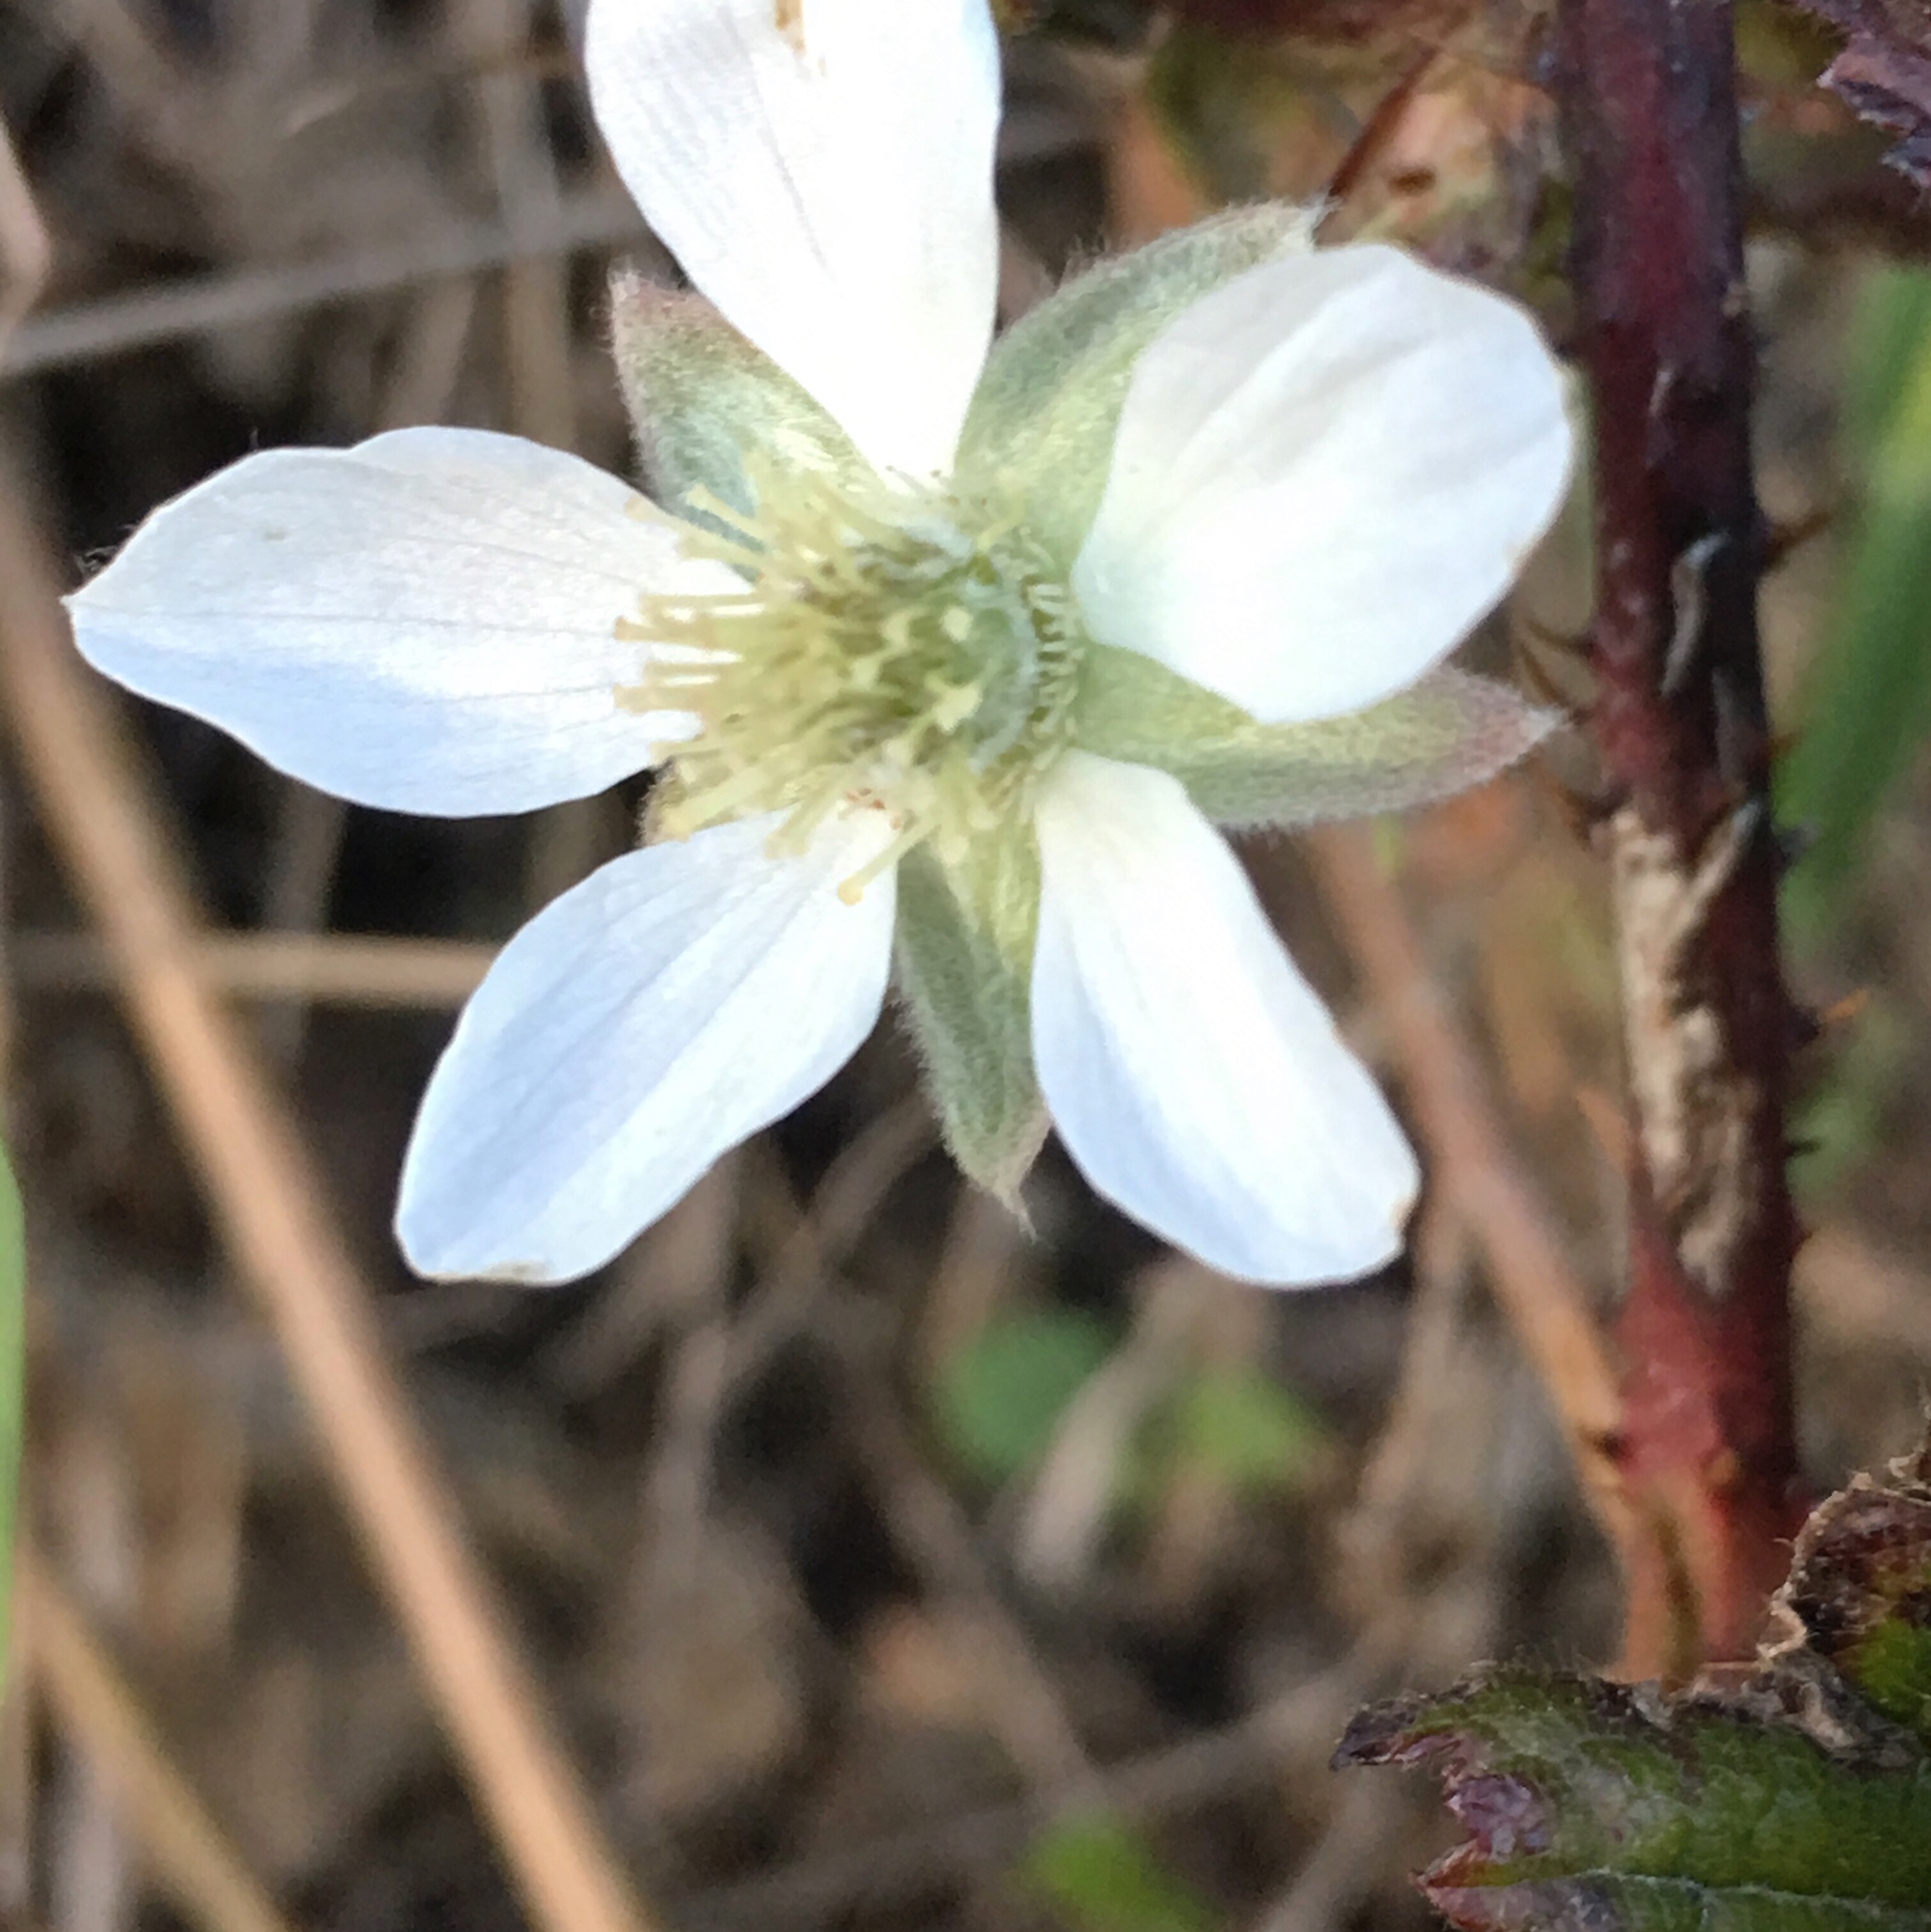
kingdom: Plantae
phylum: Tracheophyta
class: Magnoliopsida
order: Rosales
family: Rosaceae
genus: Rubus
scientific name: Rubus ursinus
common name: Pacific blackberry
